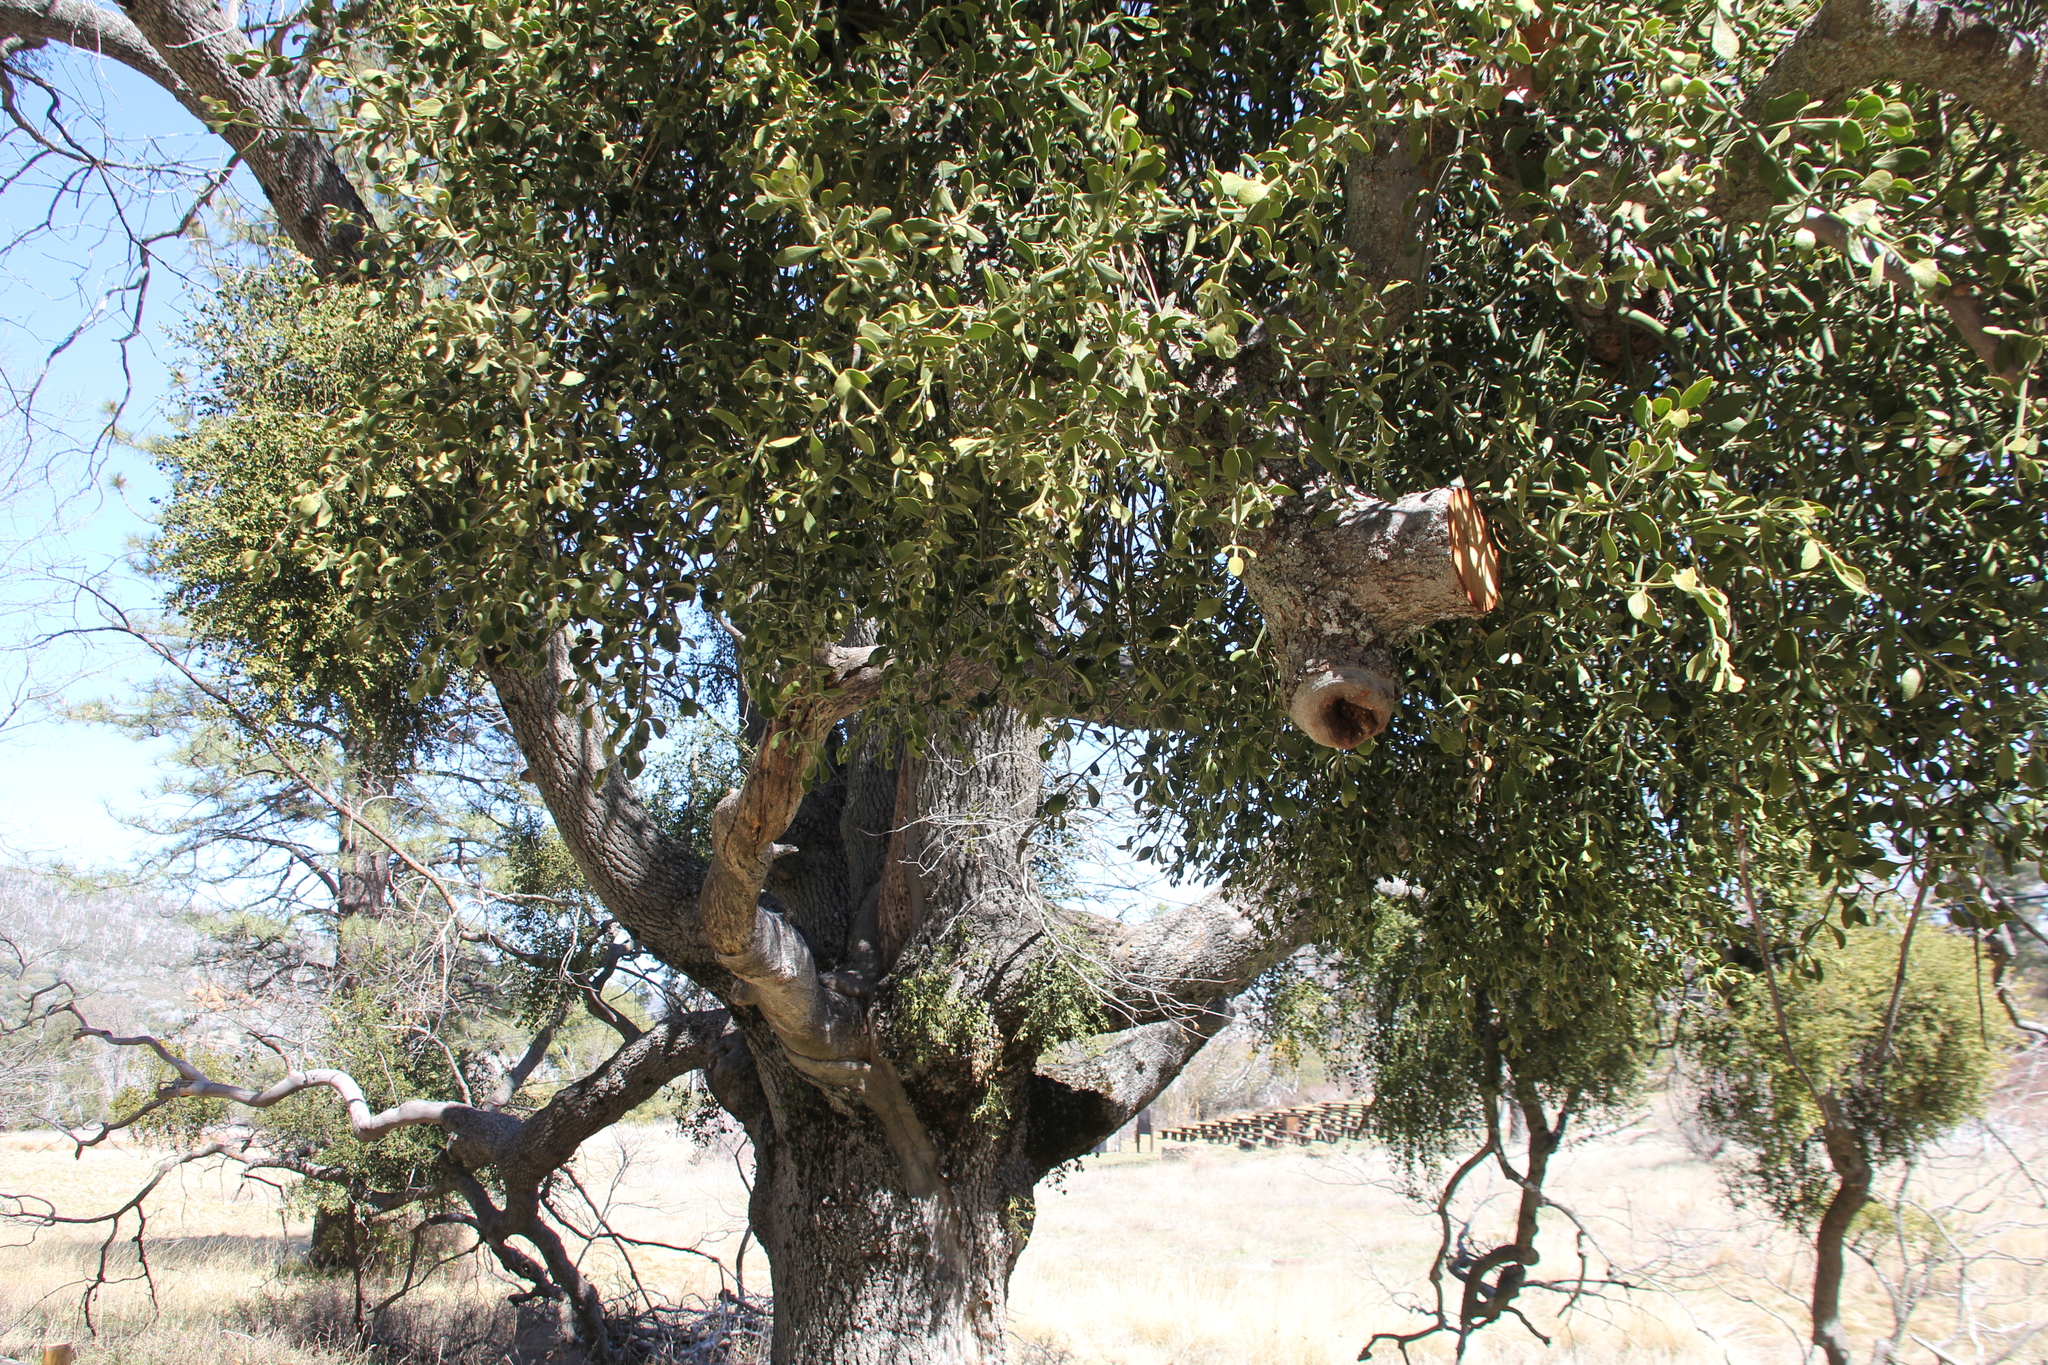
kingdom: Plantae
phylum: Tracheophyta
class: Magnoliopsida
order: Santalales
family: Viscaceae
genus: Phoradendron
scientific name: Phoradendron leucarpum
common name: Pacific mistletoe
